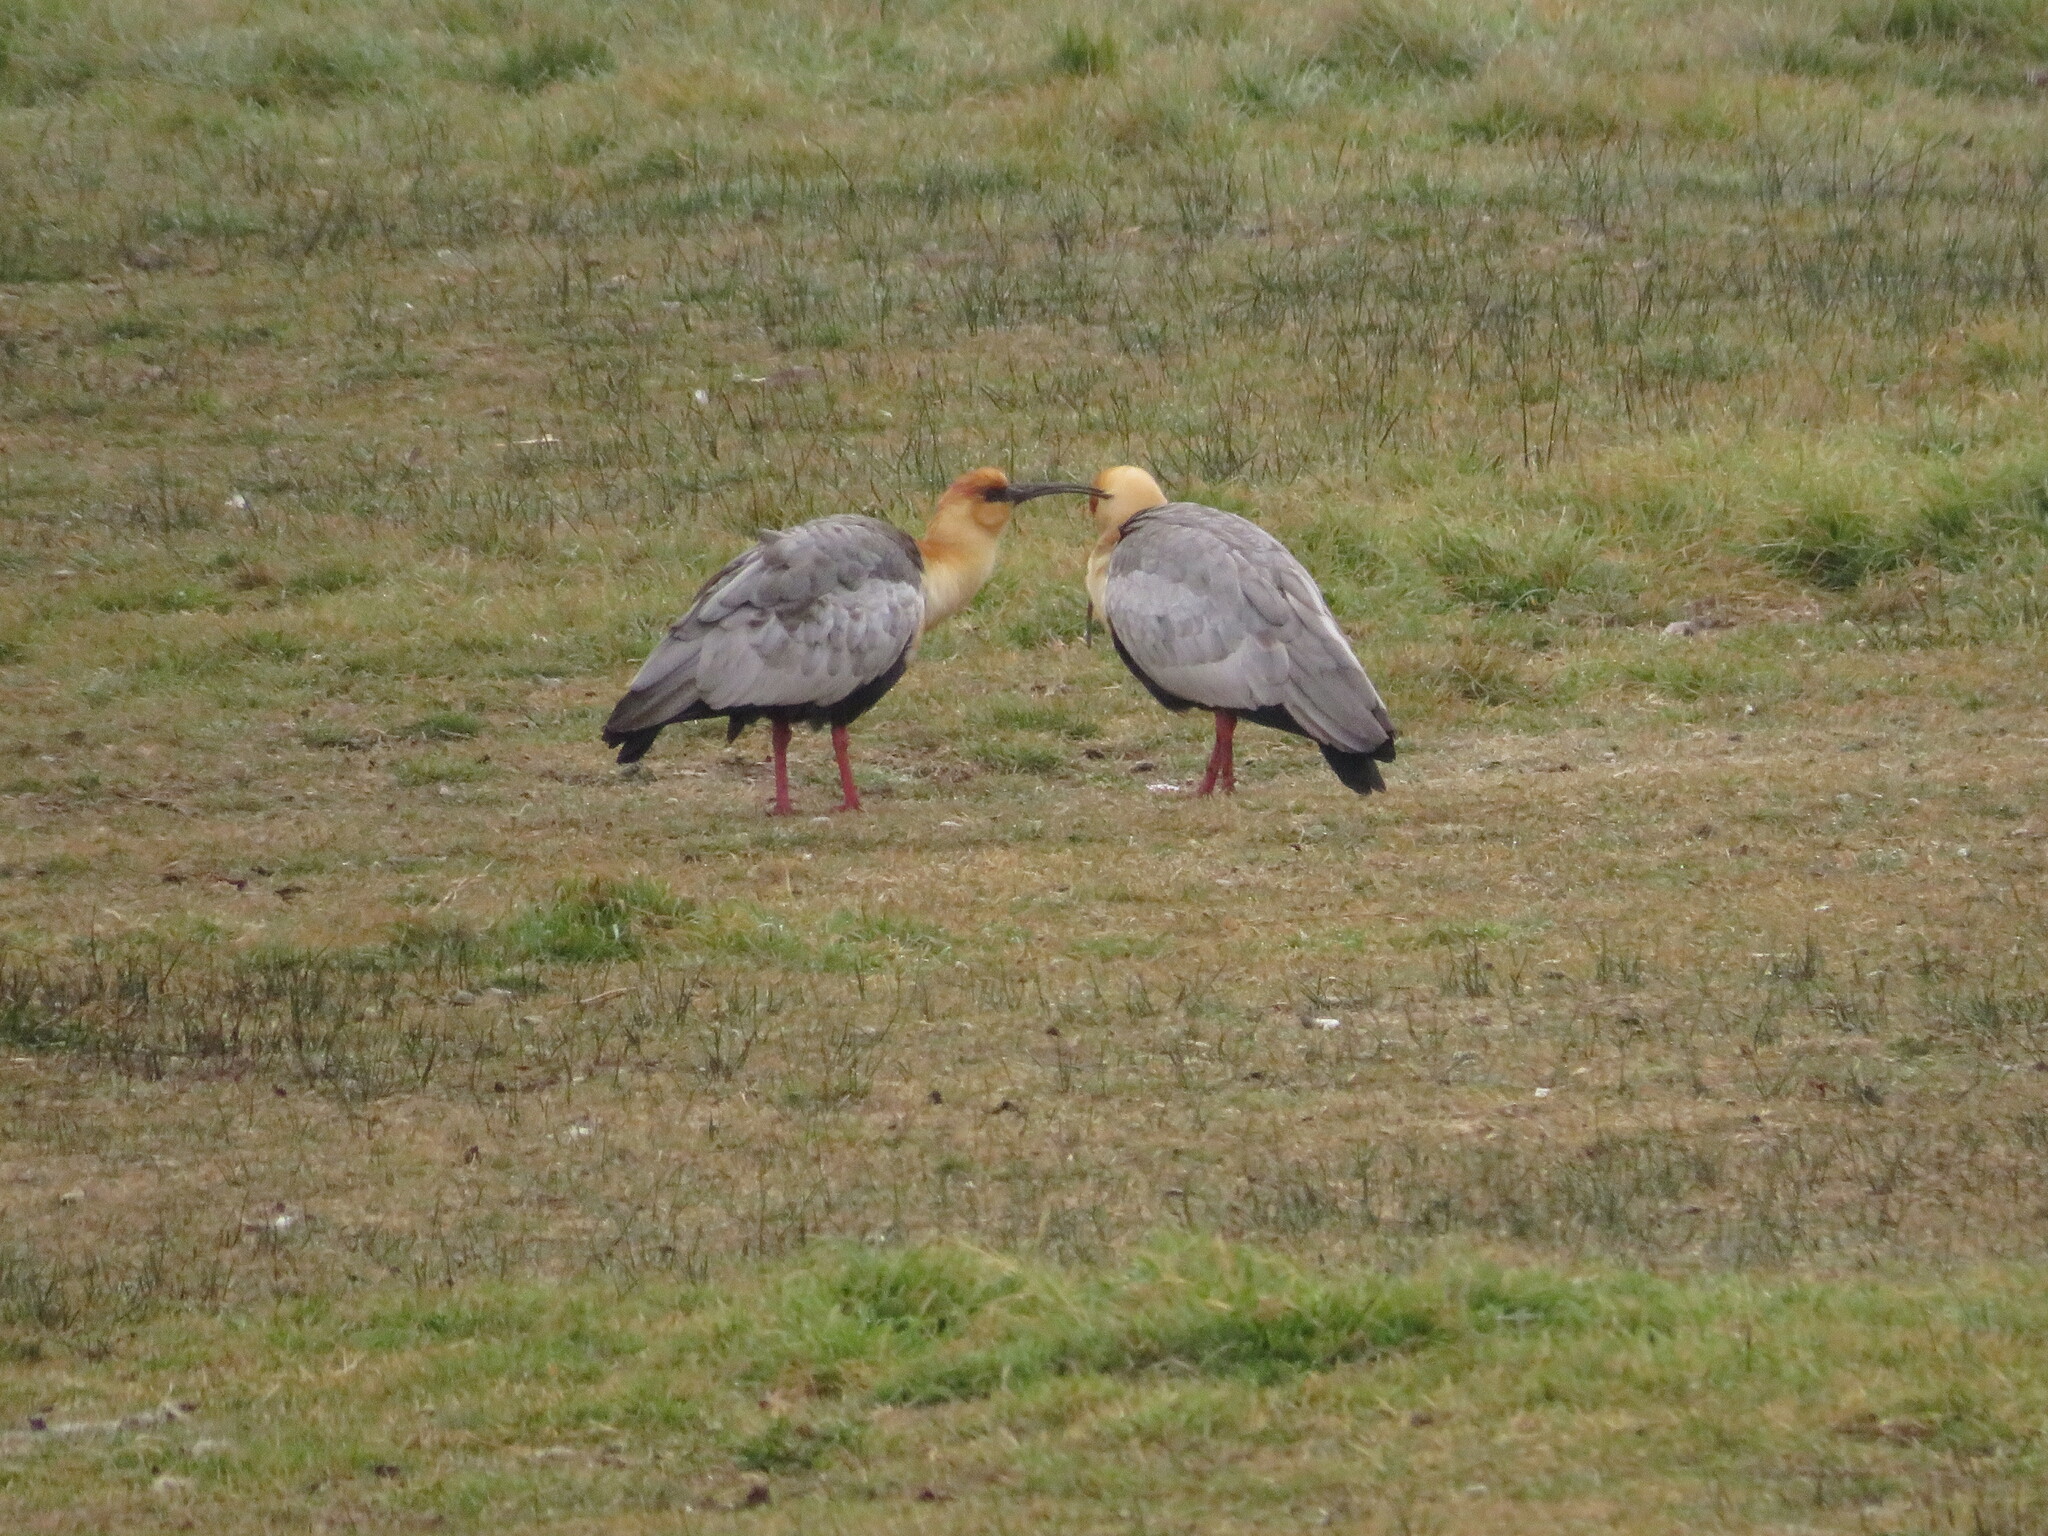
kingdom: Animalia
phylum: Chordata
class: Aves
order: Pelecaniformes
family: Threskiornithidae
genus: Theristicus
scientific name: Theristicus melanopis
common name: Black-faced ibis
